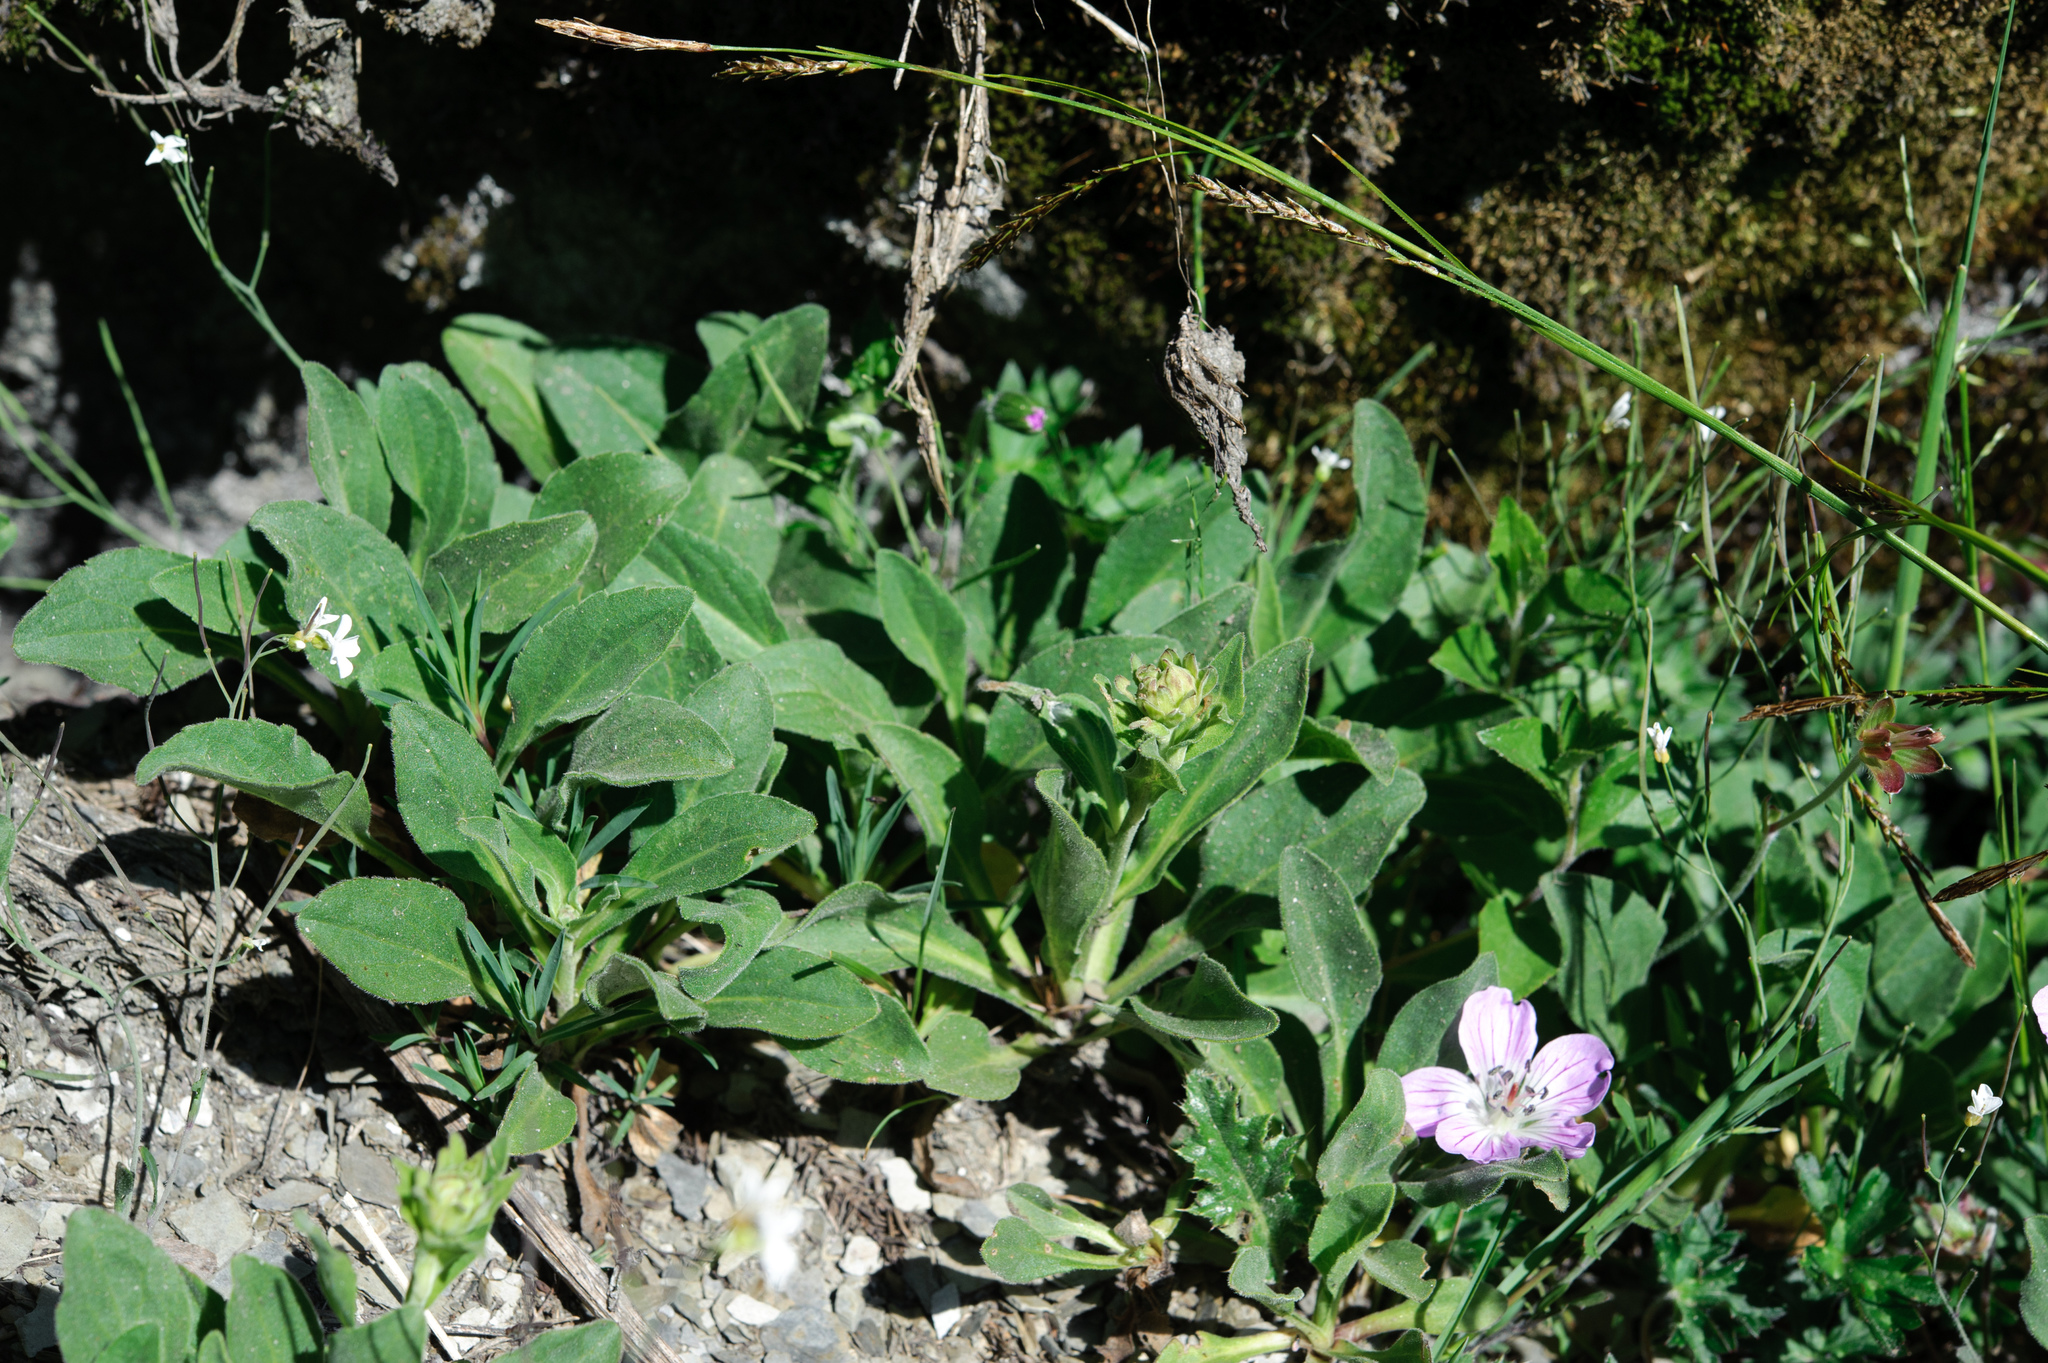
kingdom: Plantae
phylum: Tracheophyta
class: Magnoliopsida
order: Asterales
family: Asteraceae
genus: Aster
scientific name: Aster takasagomontanus
